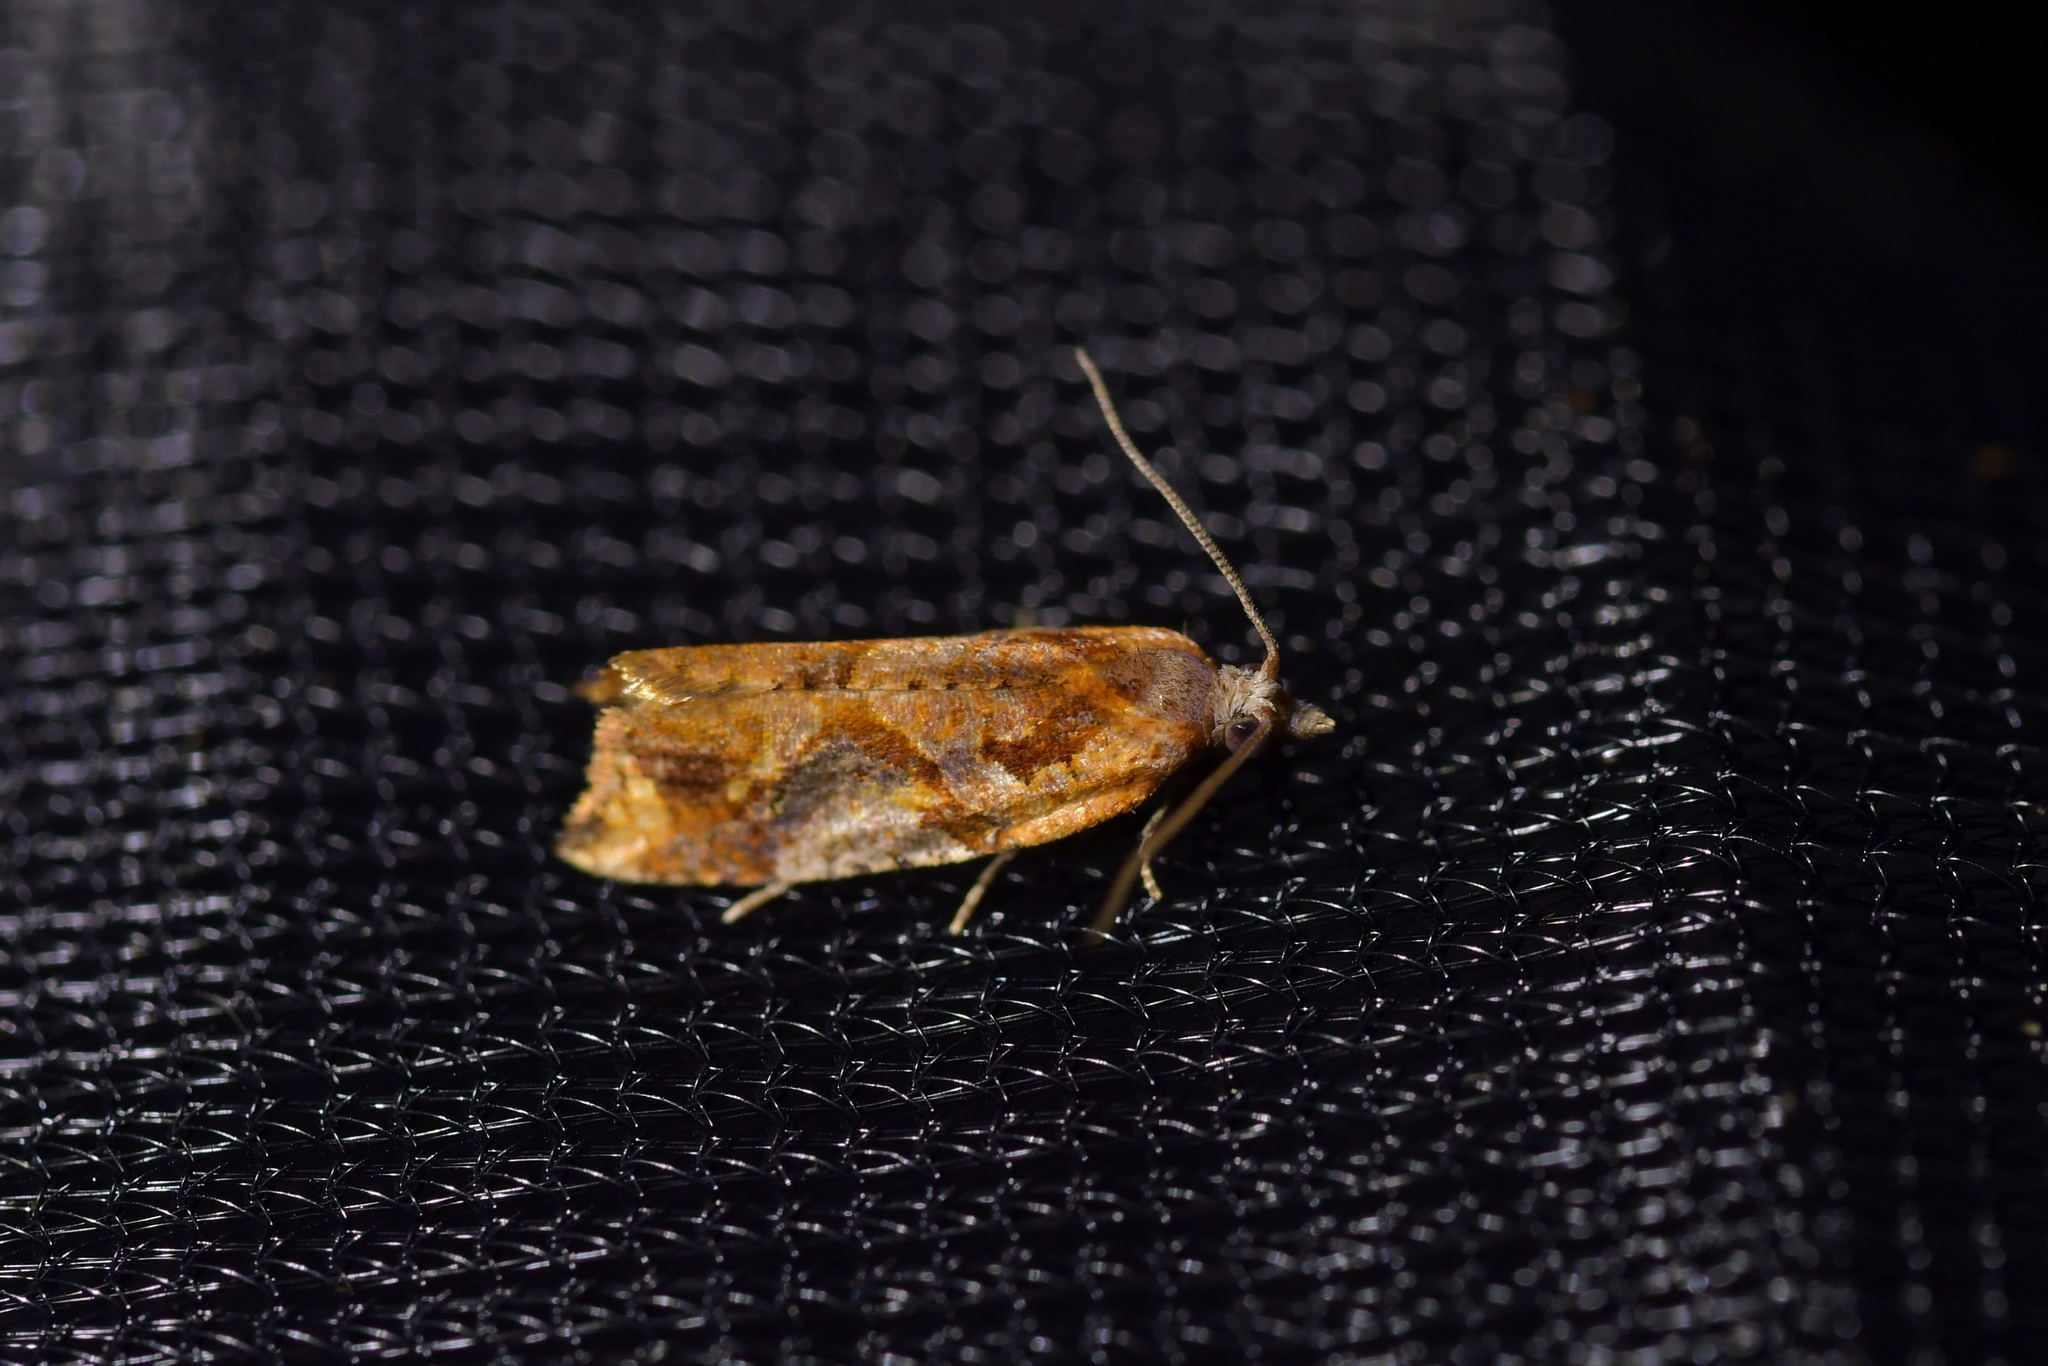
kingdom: Animalia
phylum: Arthropoda
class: Insecta
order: Lepidoptera
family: Tortricidae
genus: Pyrgotis
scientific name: Pyrgotis plagiatana
